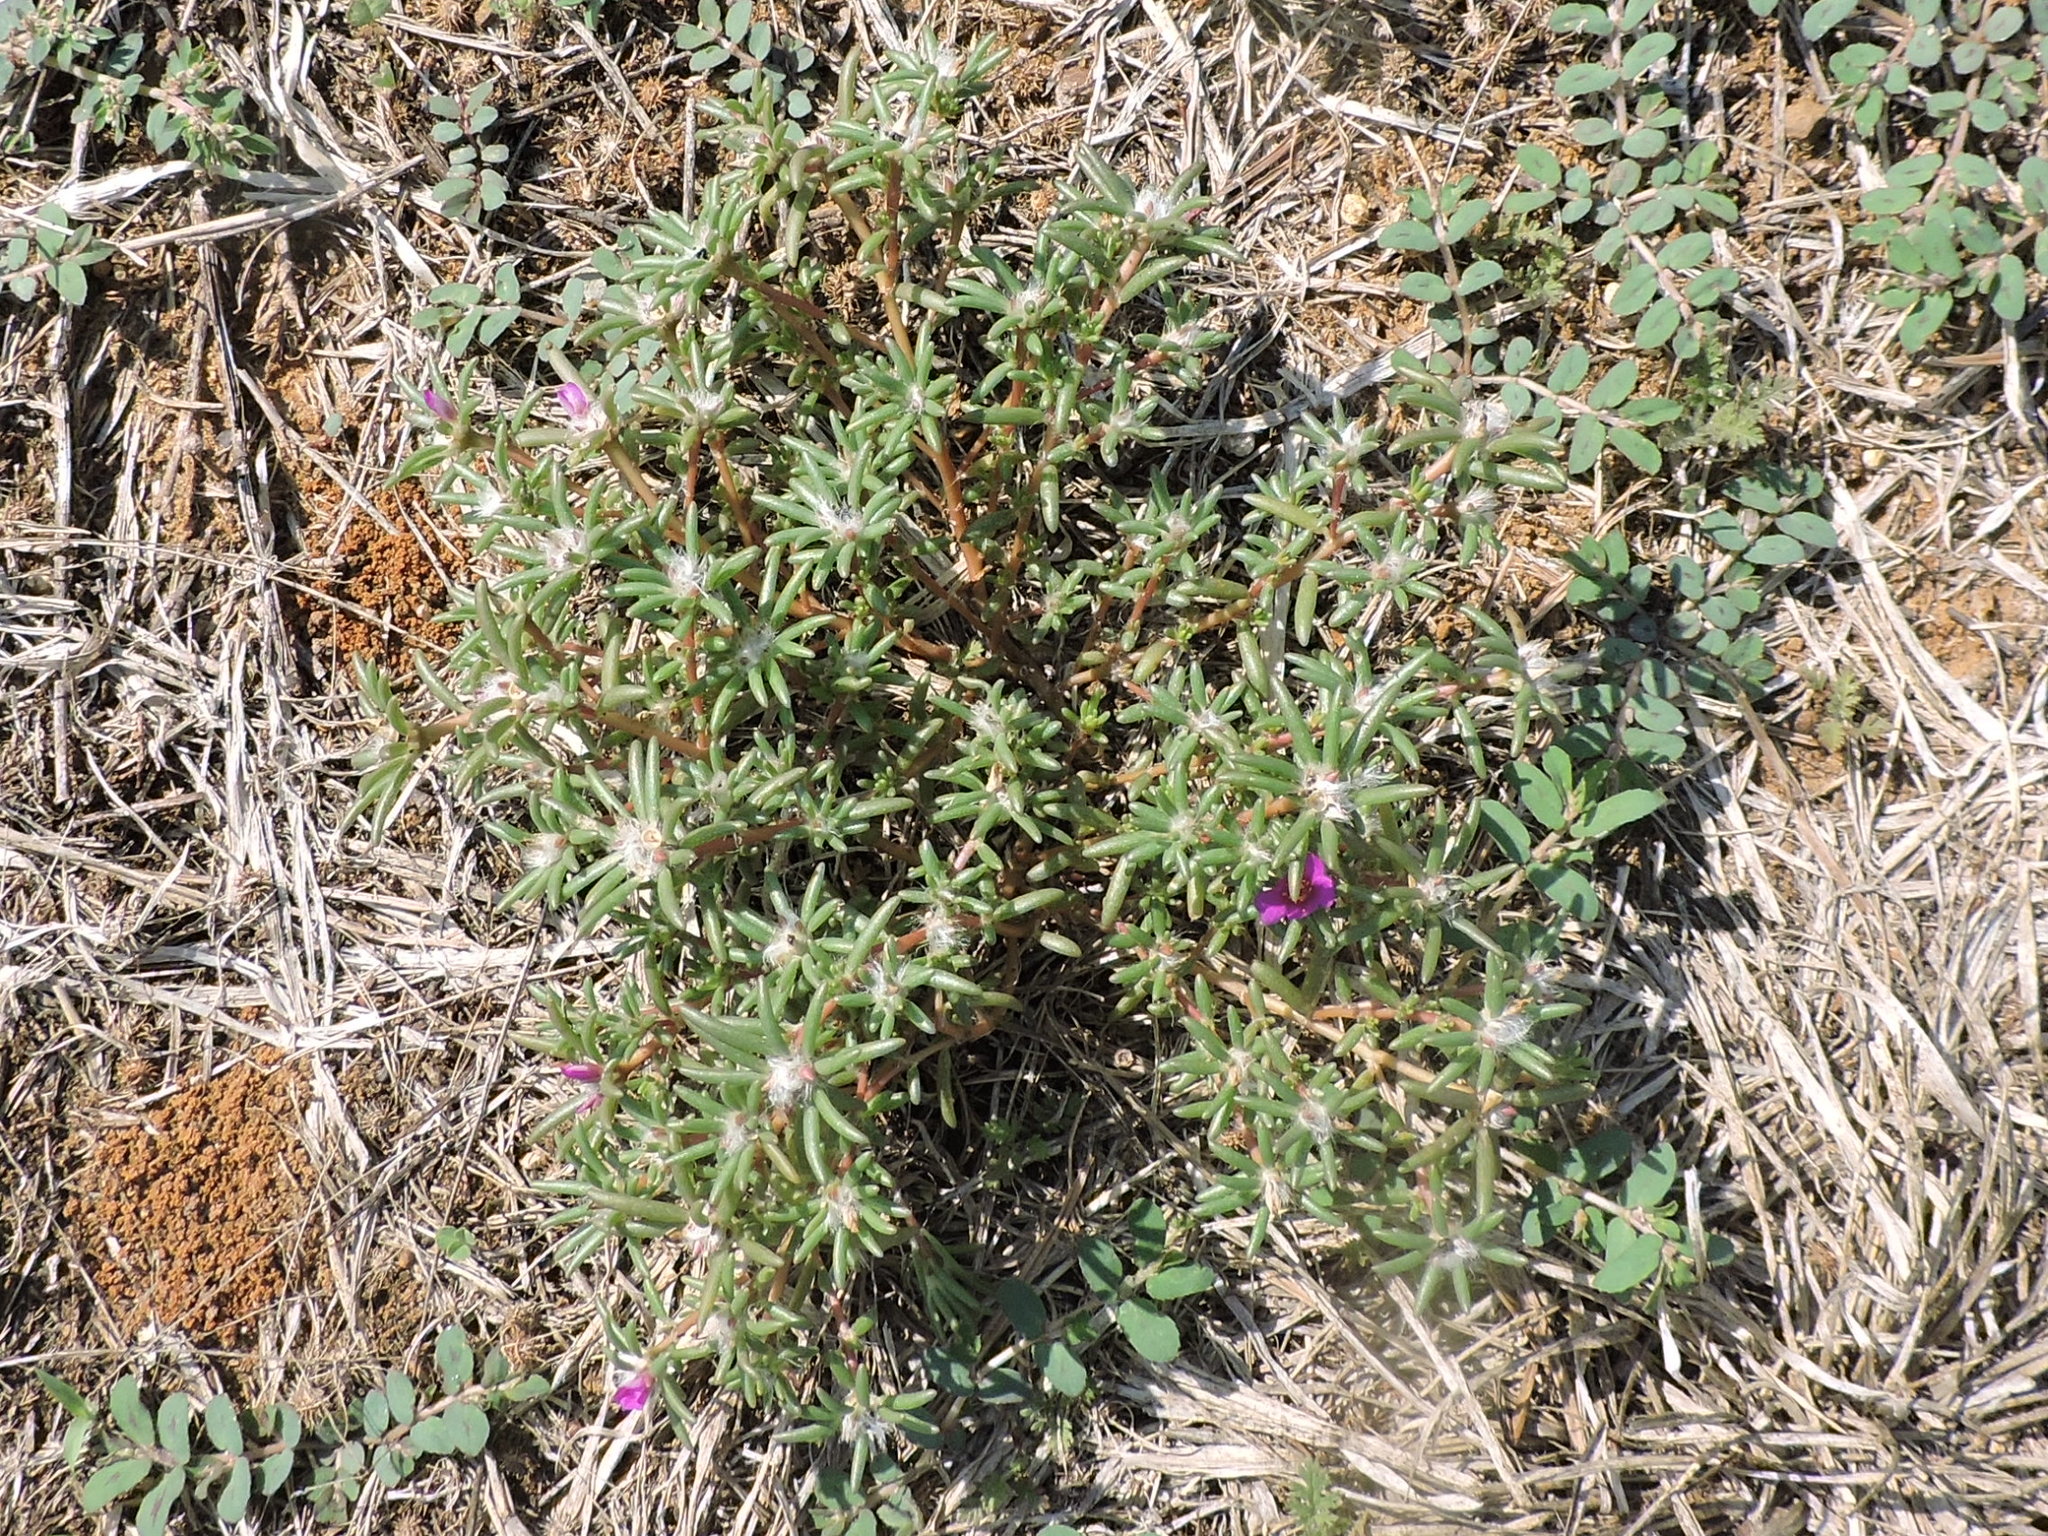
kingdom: Plantae
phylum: Tracheophyta
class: Magnoliopsida
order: Caryophyllales
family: Portulacaceae
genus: Portulaca
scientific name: Portulaca pilosa
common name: Kiss me quick
